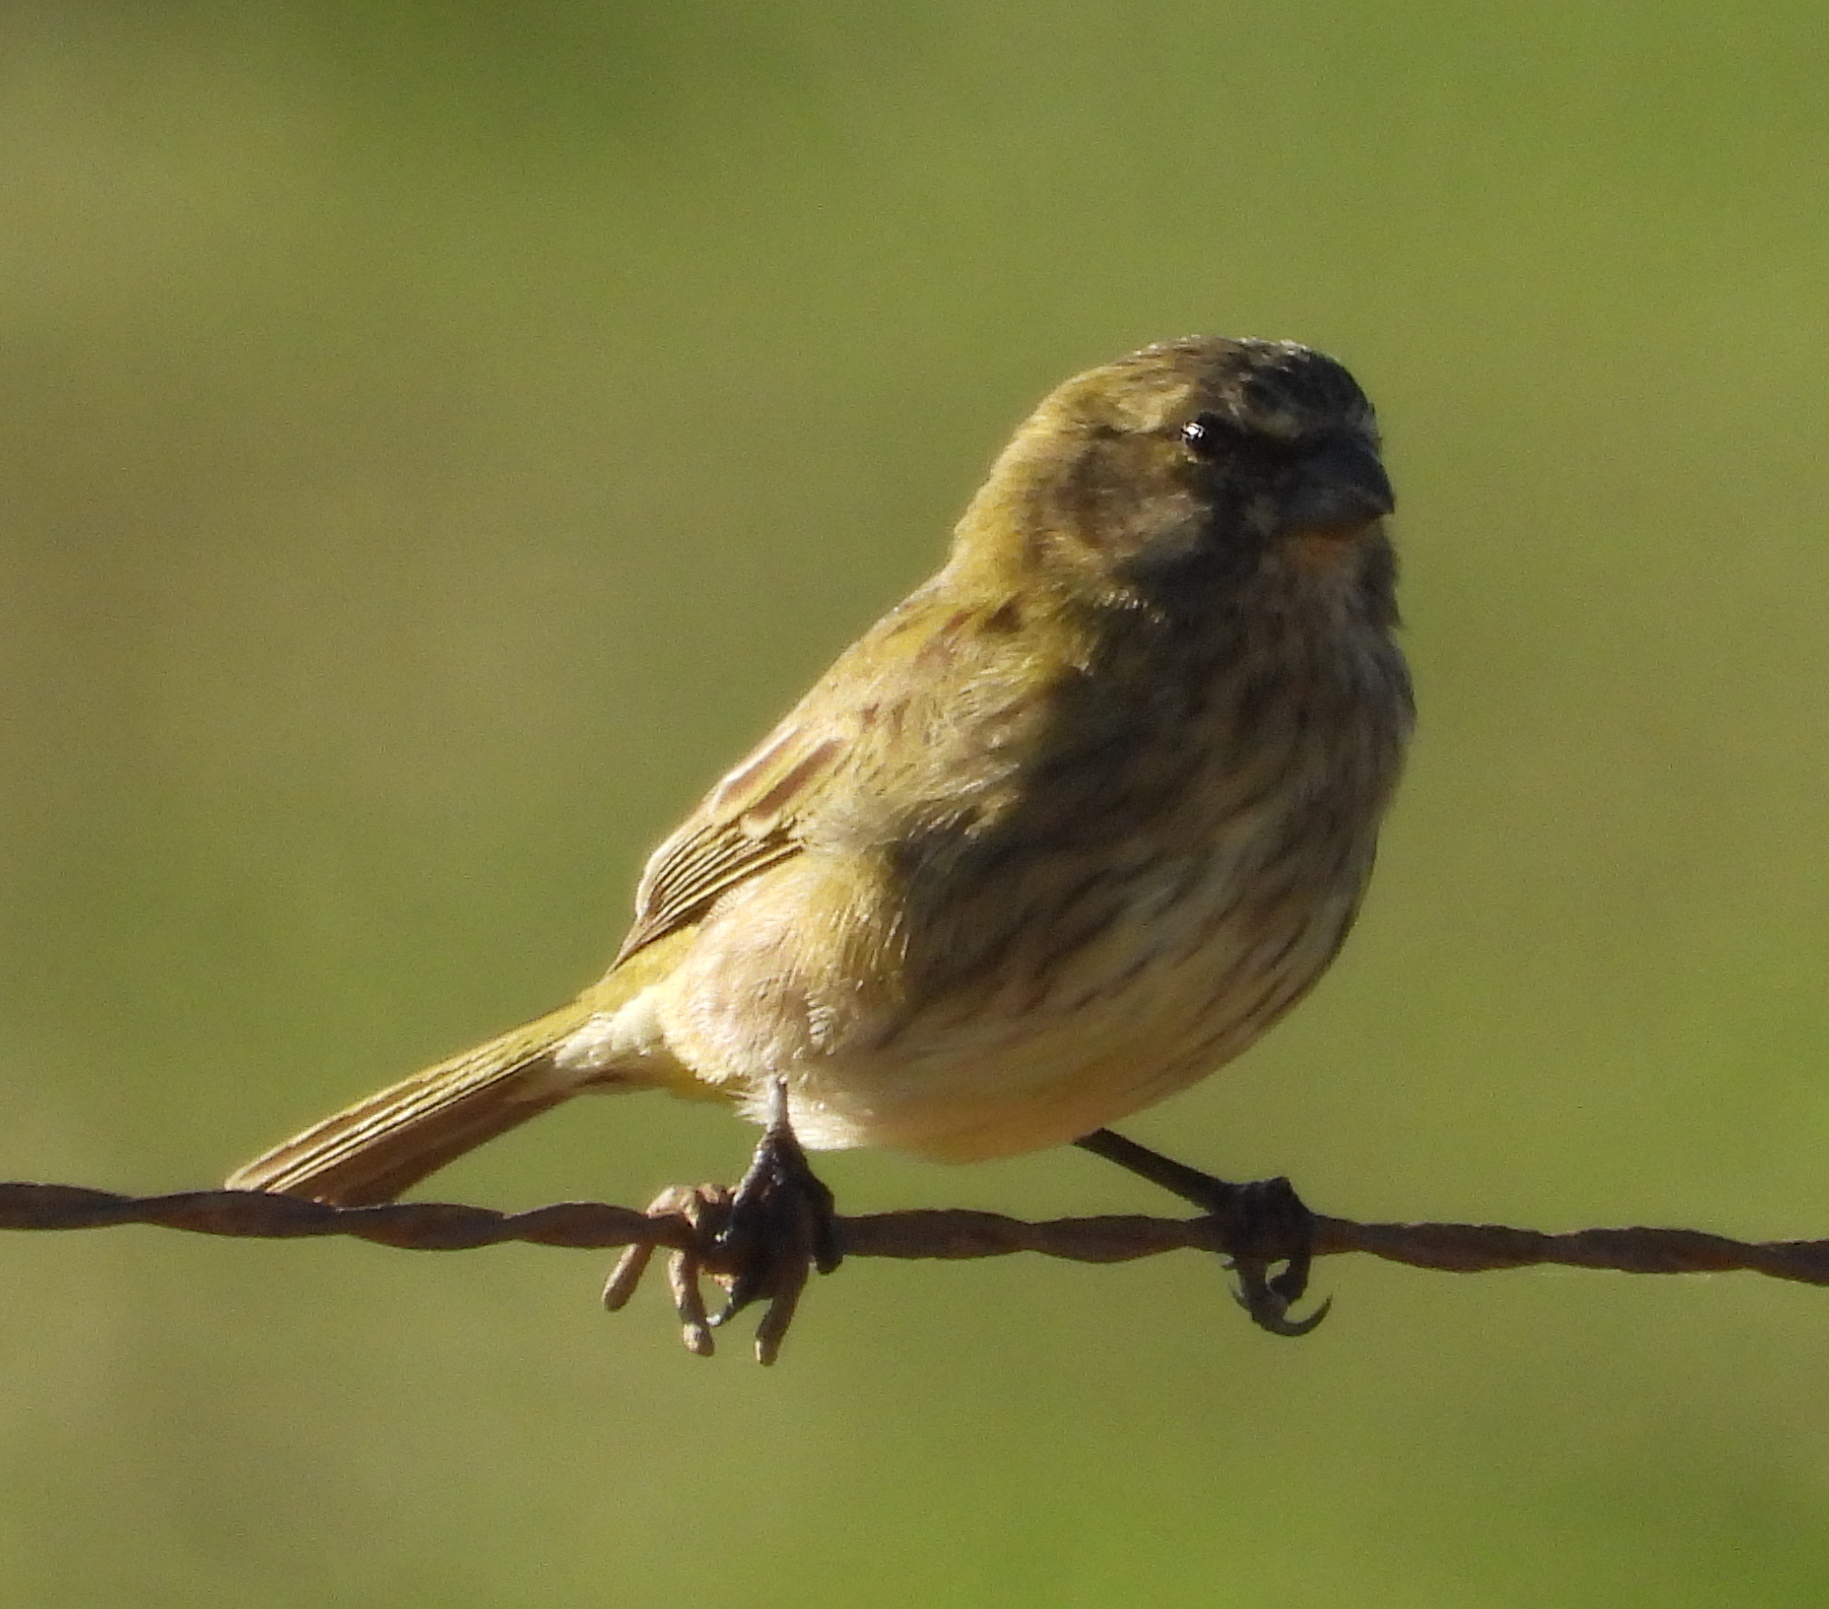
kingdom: Animalia
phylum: Chordata
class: Aves
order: Passeriformes
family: Fringillidae
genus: Crithagra
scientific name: Crithagra flaviventris
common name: Yellow canary
